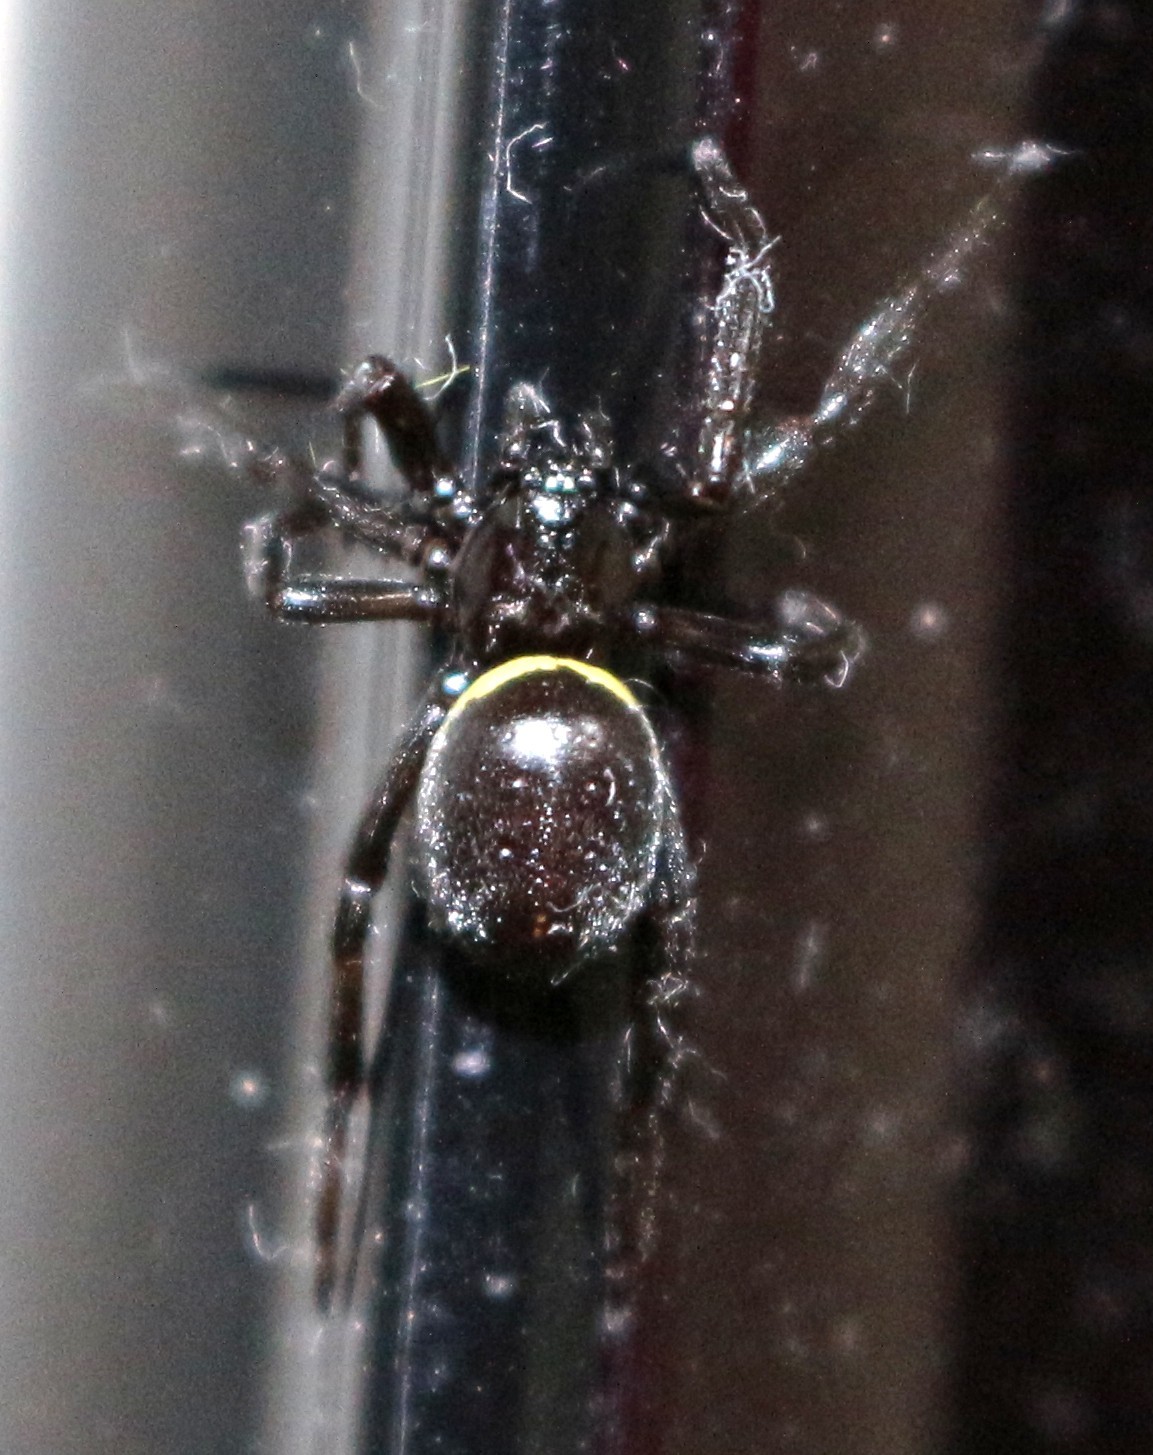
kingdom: Animalia
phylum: Arthropoda
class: Arachnida
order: Araneae
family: Theridiidae
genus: Steatoda
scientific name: Steatoda paykulliana
